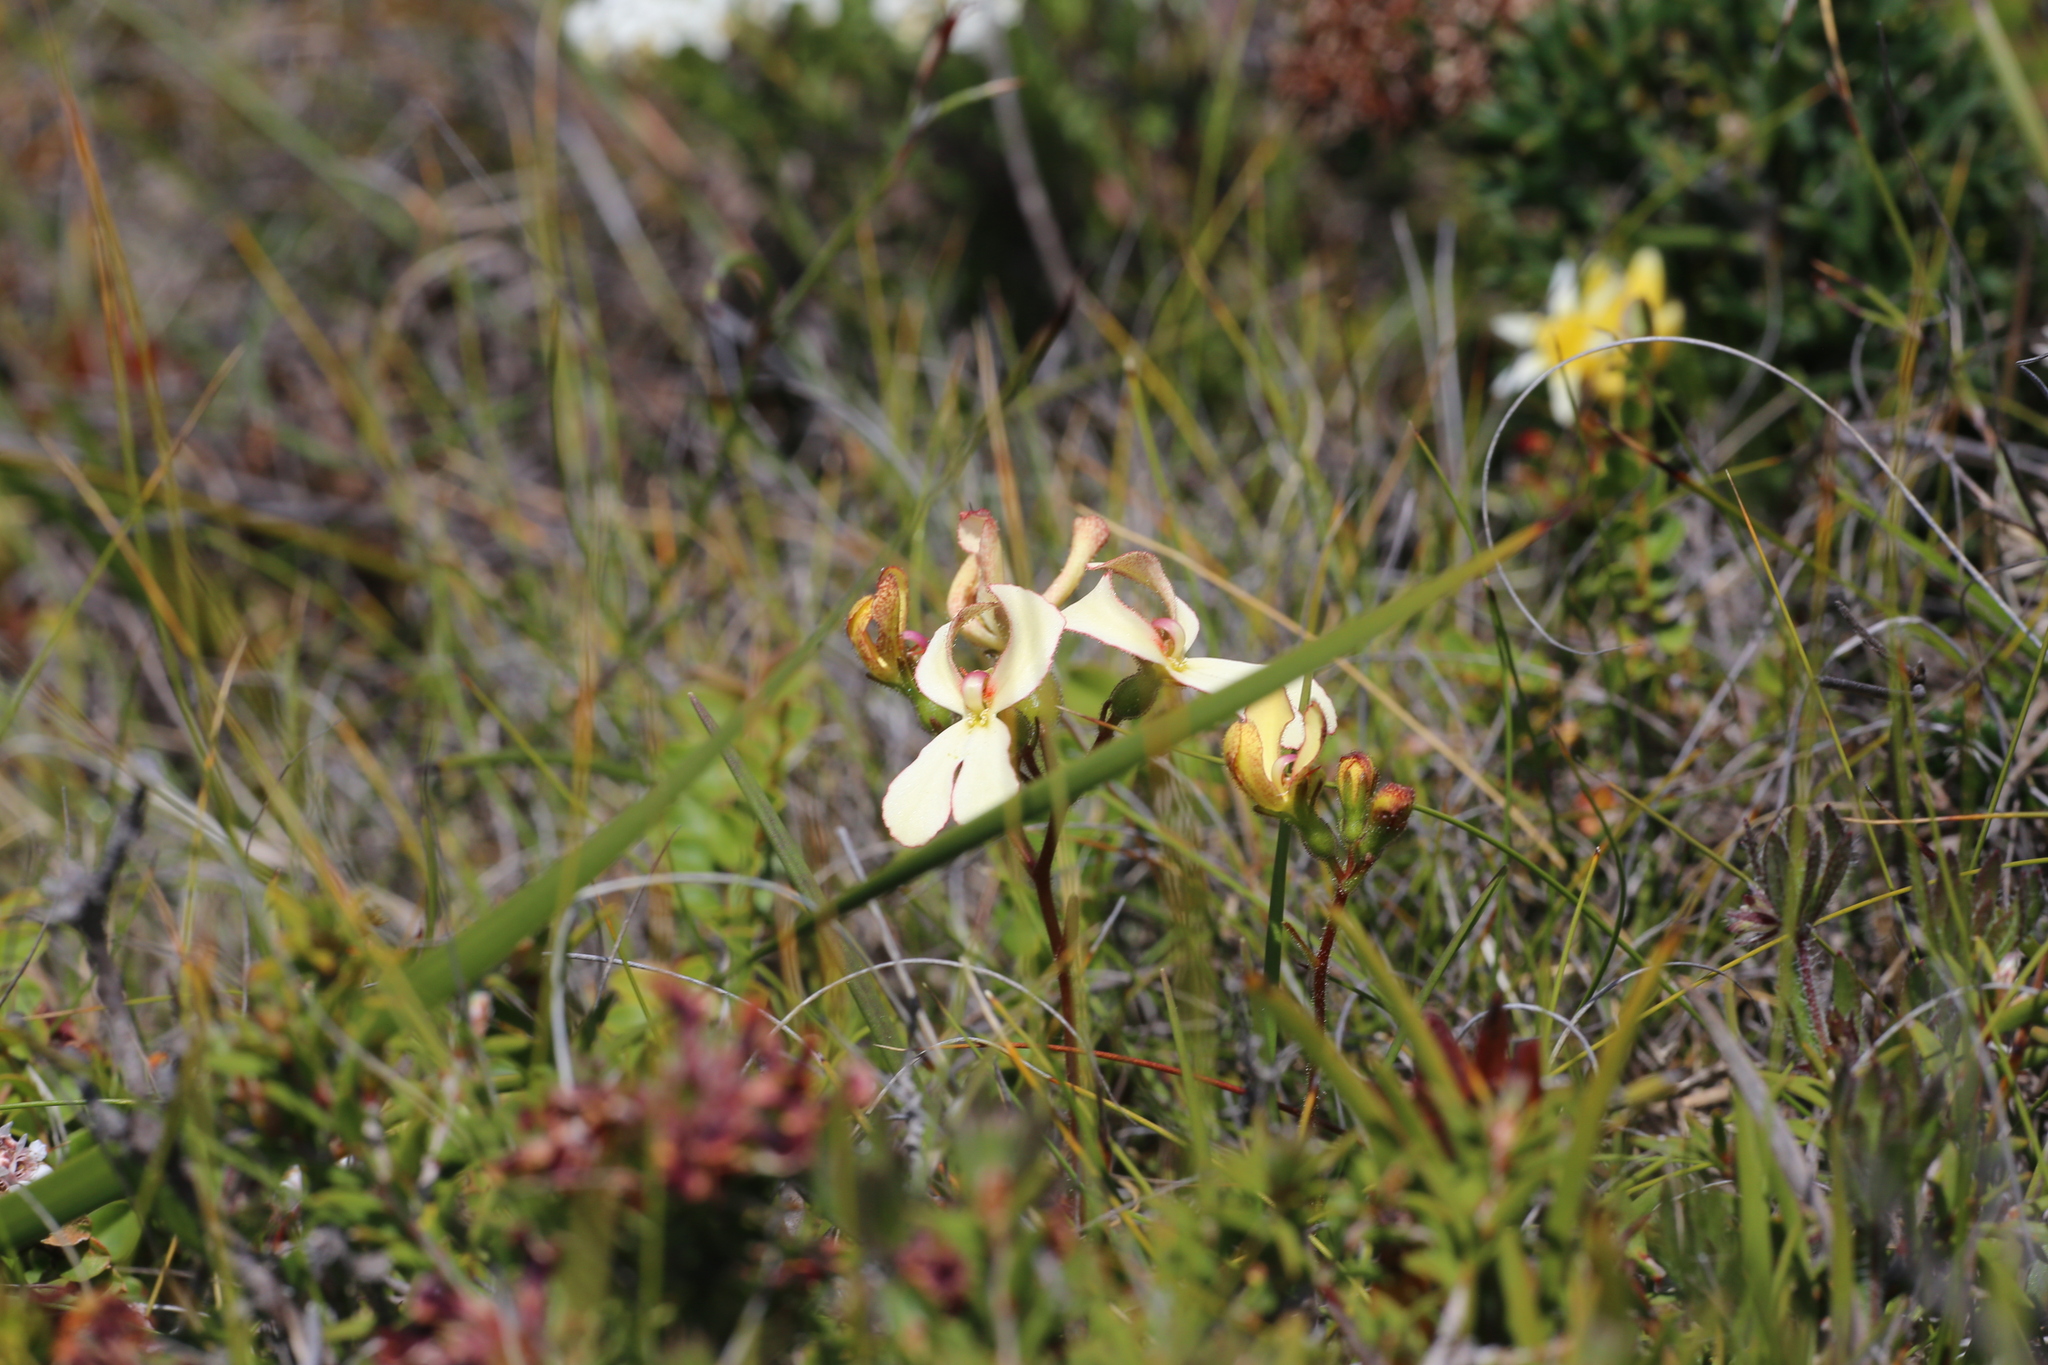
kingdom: Plantae
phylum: Tracheophyta
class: Magnoliopsida
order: Asterales
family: Stylidiaceae
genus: Stylidium
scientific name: Stylidium schoenoides
